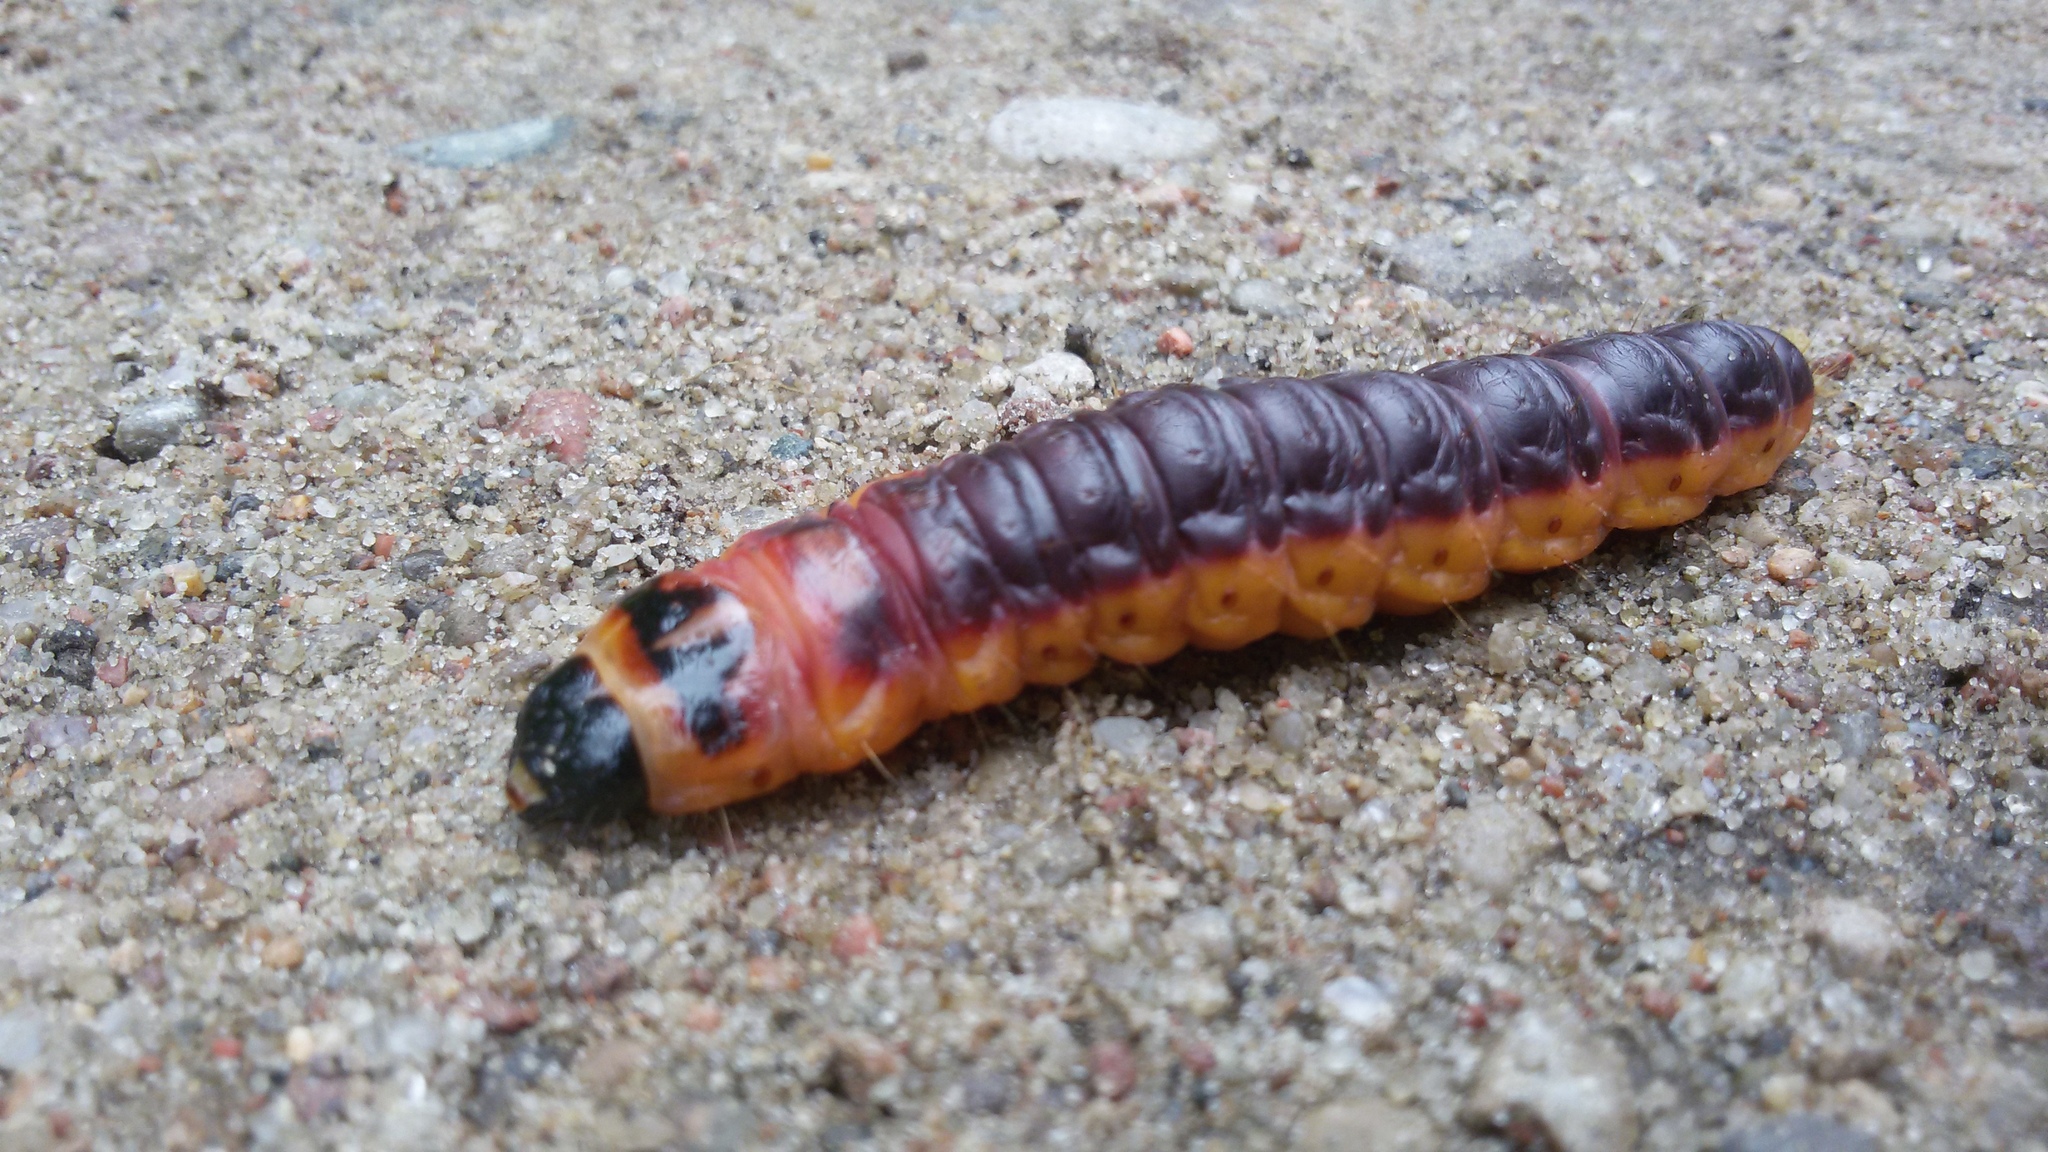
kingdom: Animalia
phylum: Arthropoda
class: Insecta
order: Lepidoptera
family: Cossidae
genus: Cossus
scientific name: Cossus cossus
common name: Goat moth
